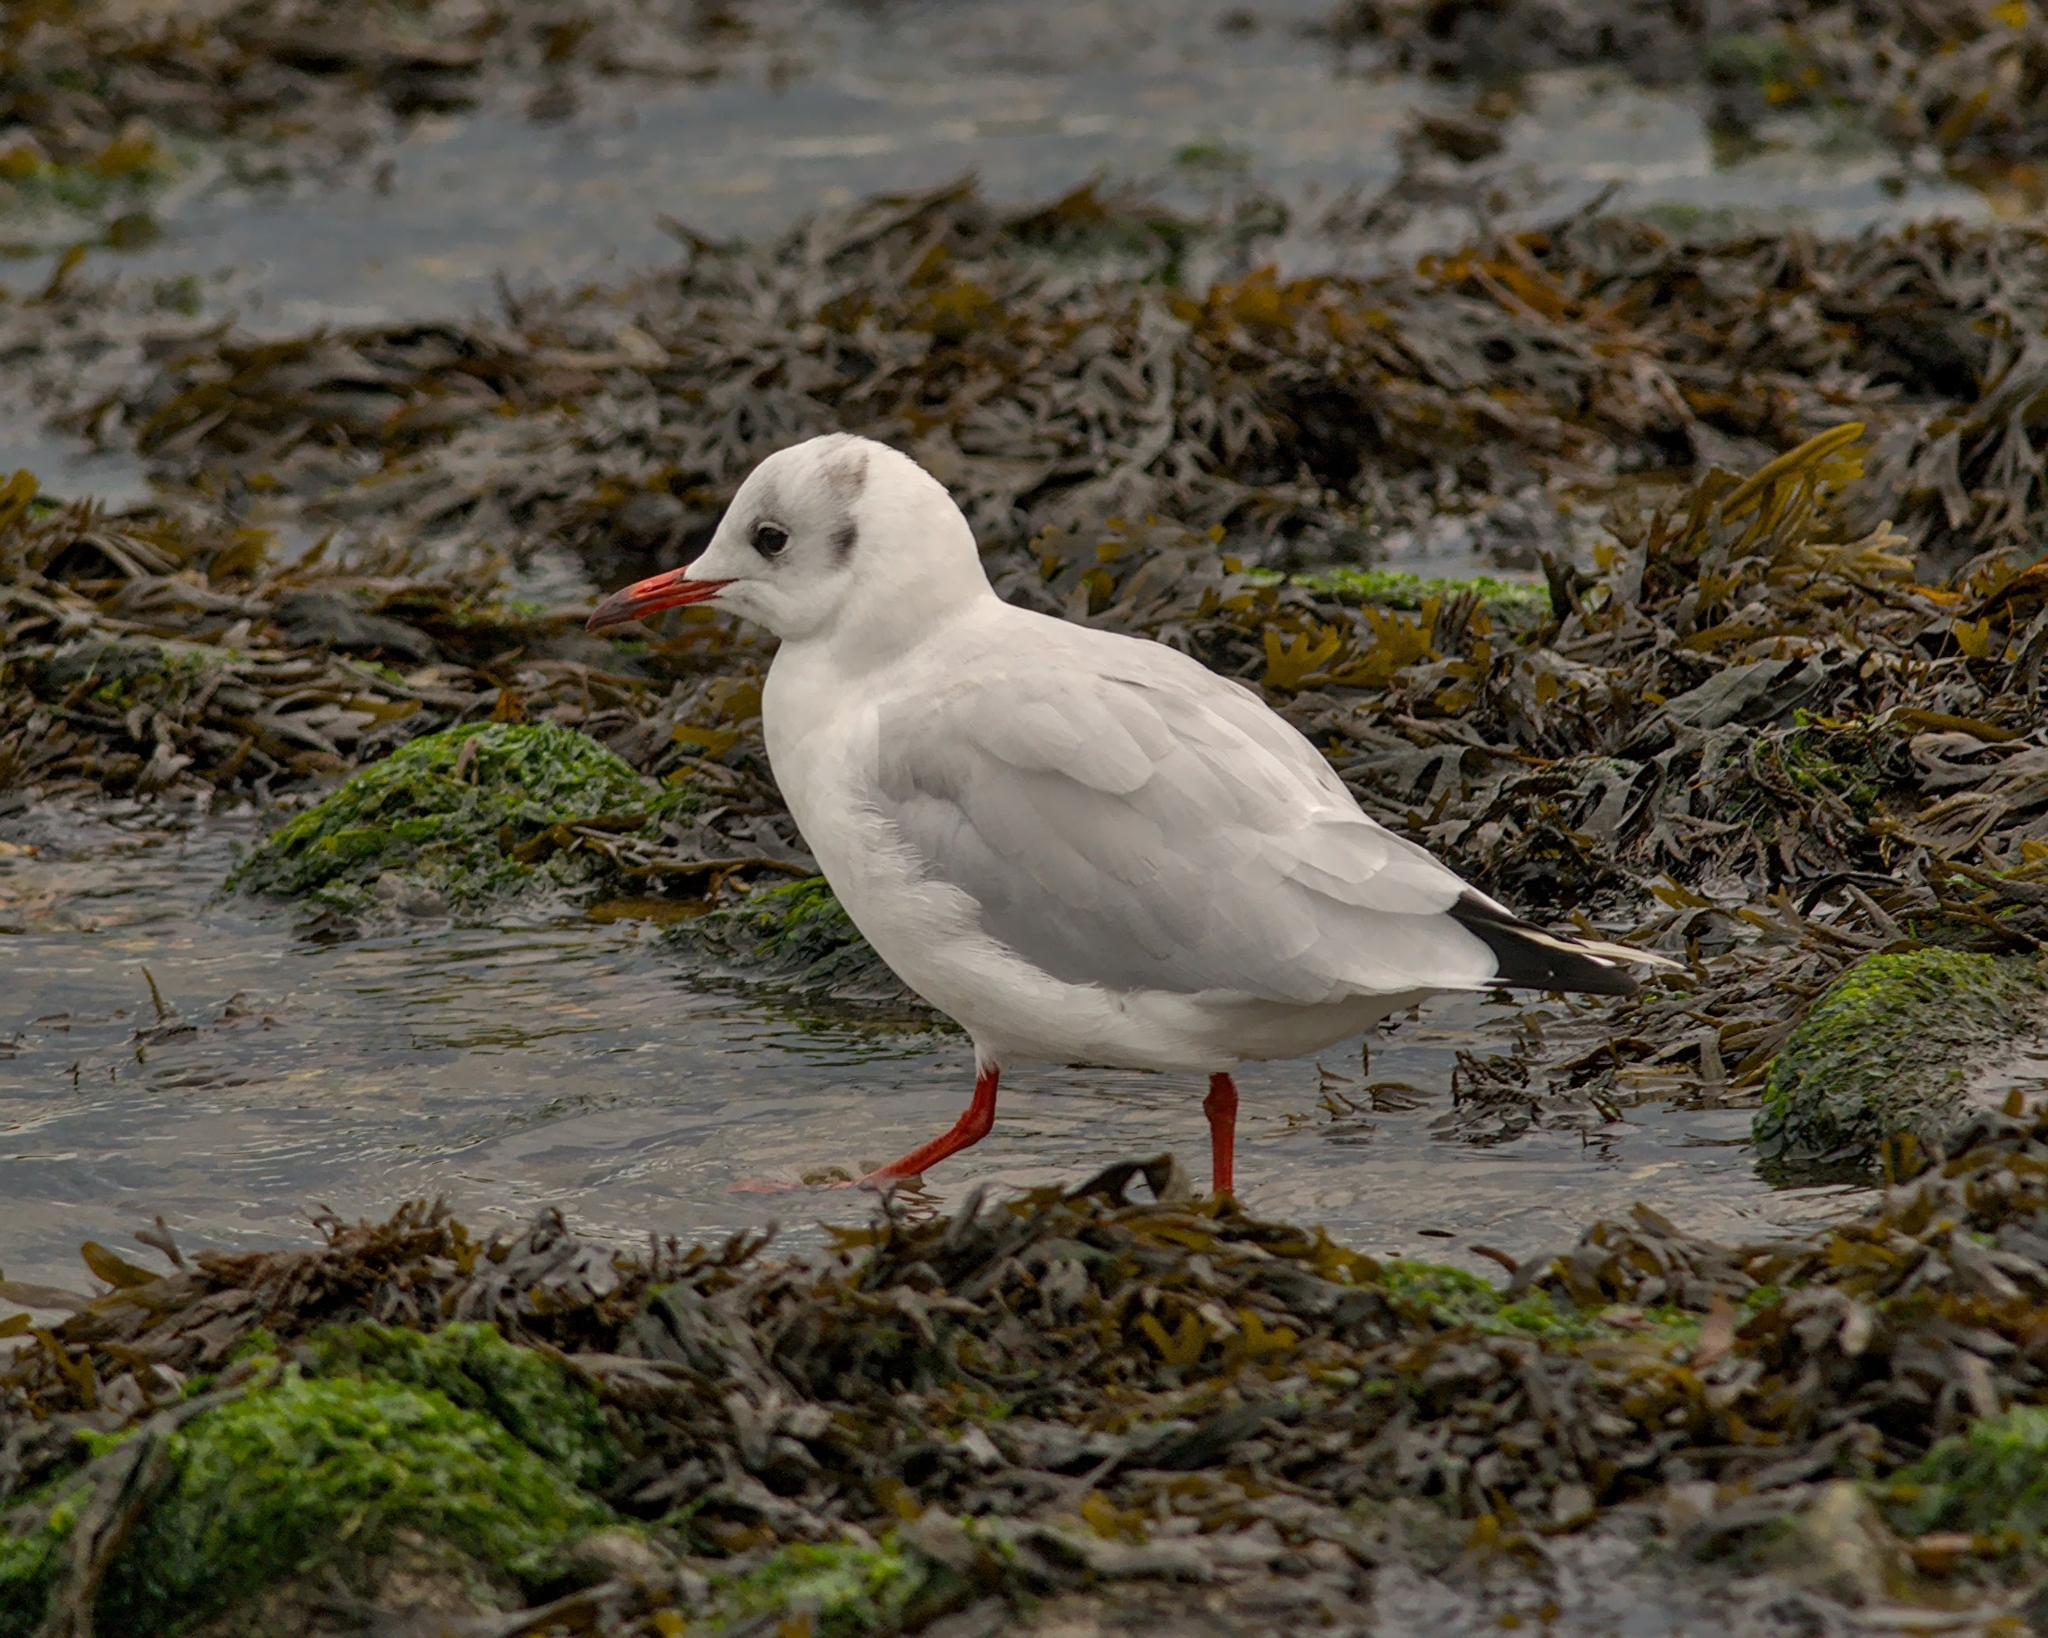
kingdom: Animalia
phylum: Chordata
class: Aves
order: Charadriiformes
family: Laridae
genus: Chroicocephalus
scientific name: Chroicocephalus ridibundus
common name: Black-headed gull
